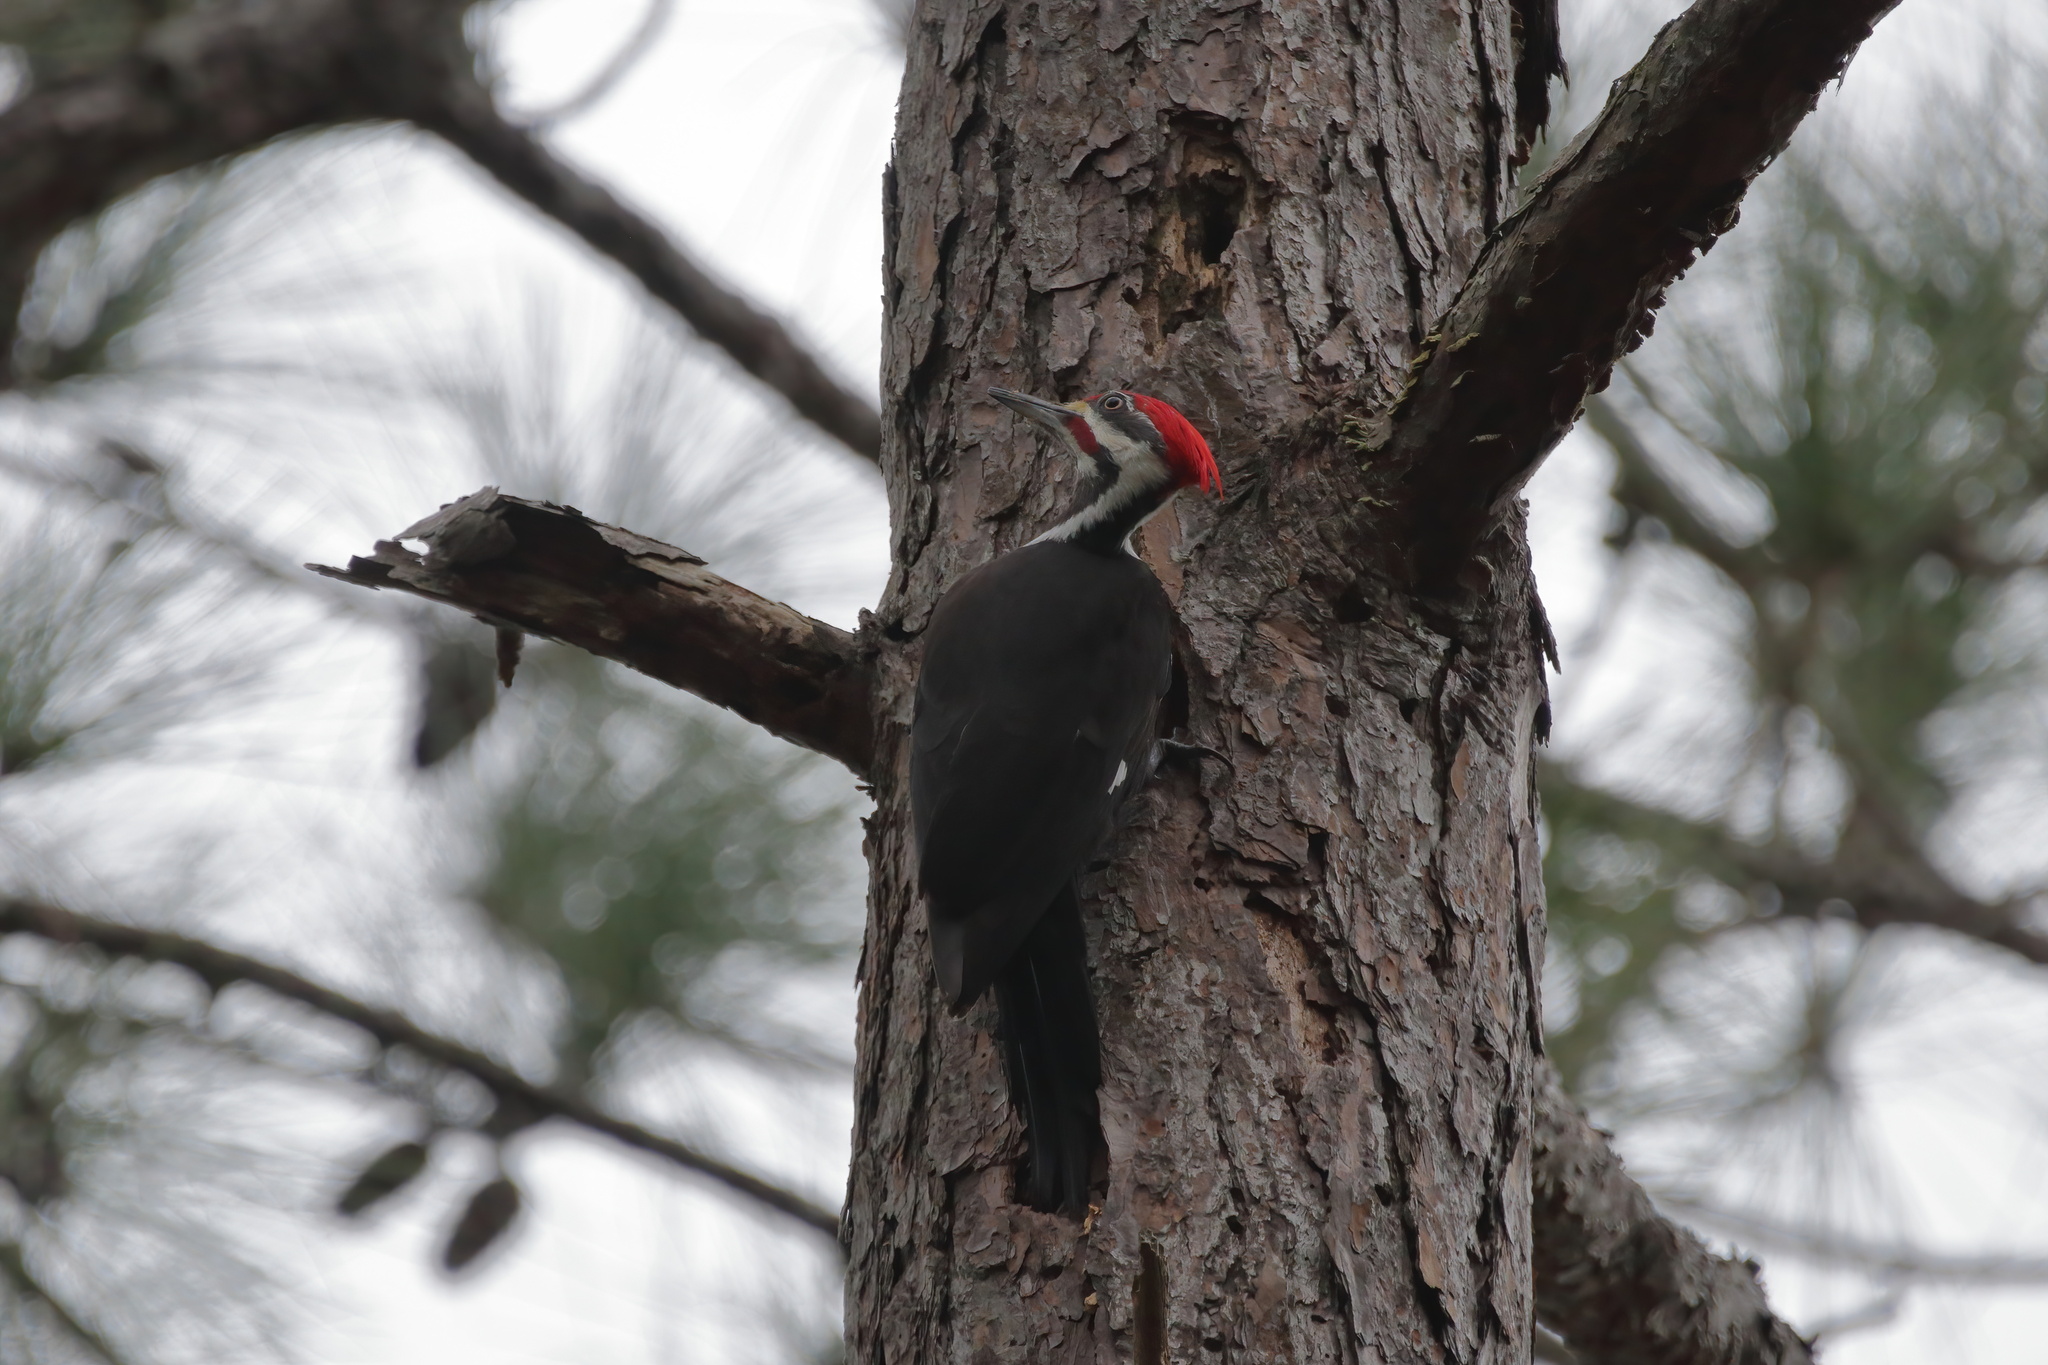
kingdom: Animalia
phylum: Chordata
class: Aves
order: Piciformes
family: Picidae
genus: Dryocopus
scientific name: Dryocopus pileatus
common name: Pileated woodpecker
